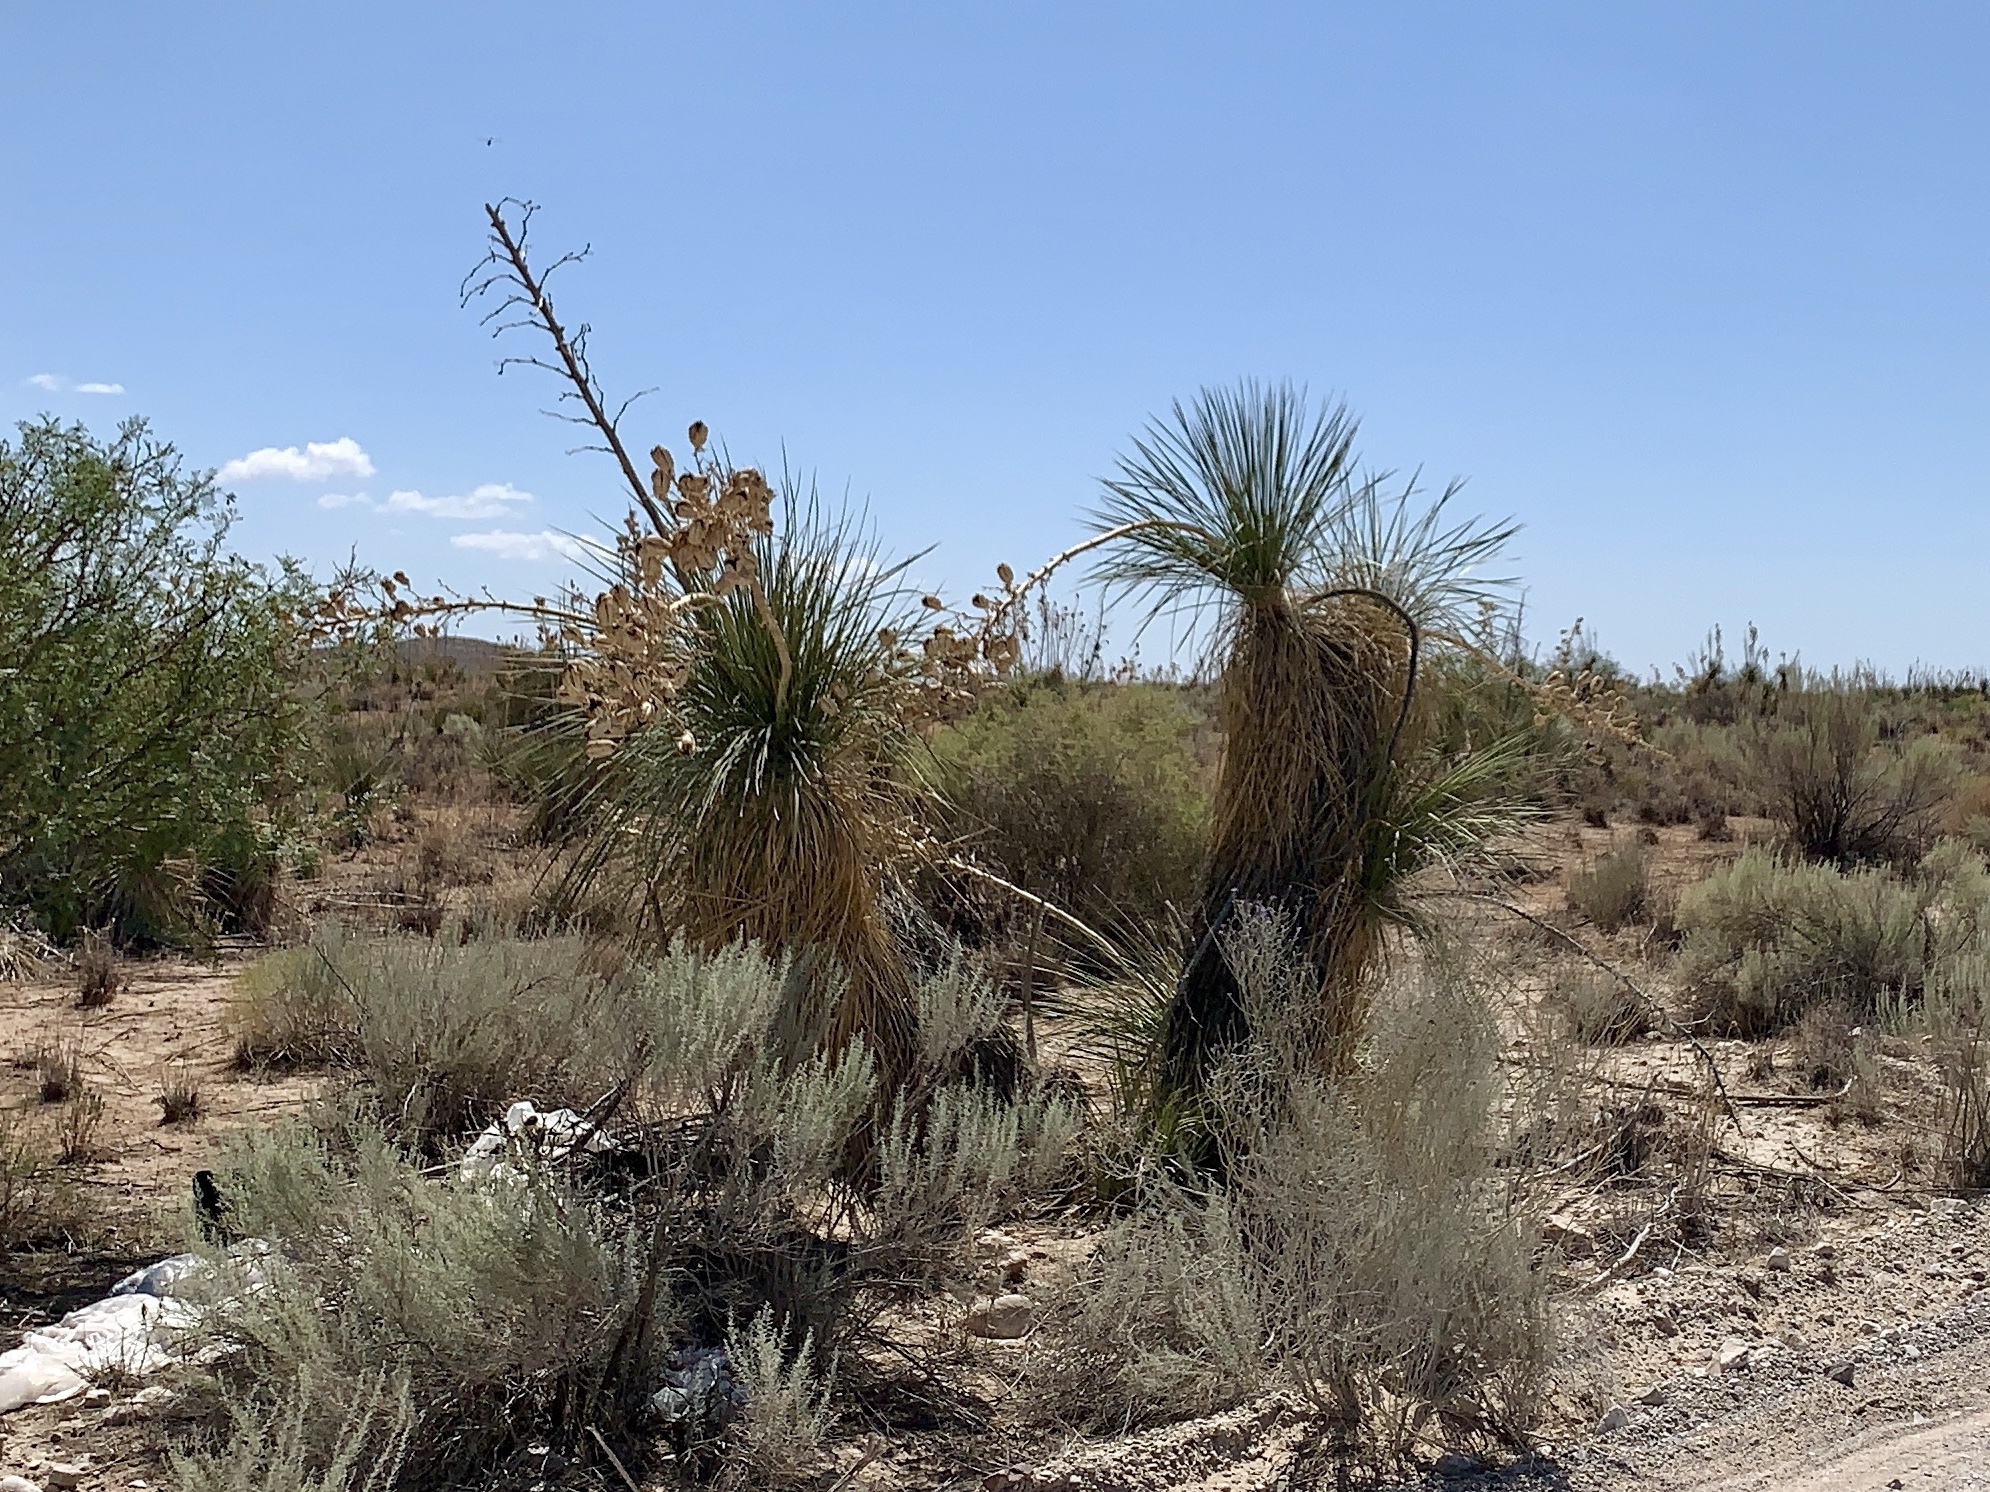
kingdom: Plantae
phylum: Tracheophyta
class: Liliopsida
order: Asparagales
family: Asparagaceae
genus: Yucca
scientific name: Yucca elata
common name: Palmella
